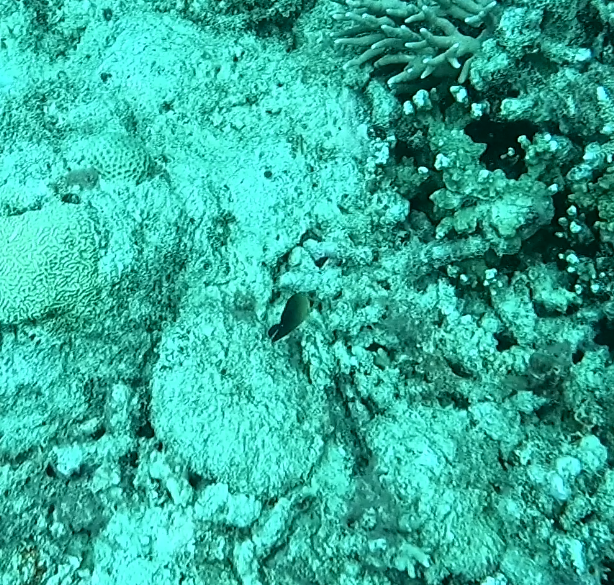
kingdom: Animalia
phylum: Chordata
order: Perciformes
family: Acanthuridae
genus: Zebrasoma
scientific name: Zebrasoma scopas
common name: Twotone tang
